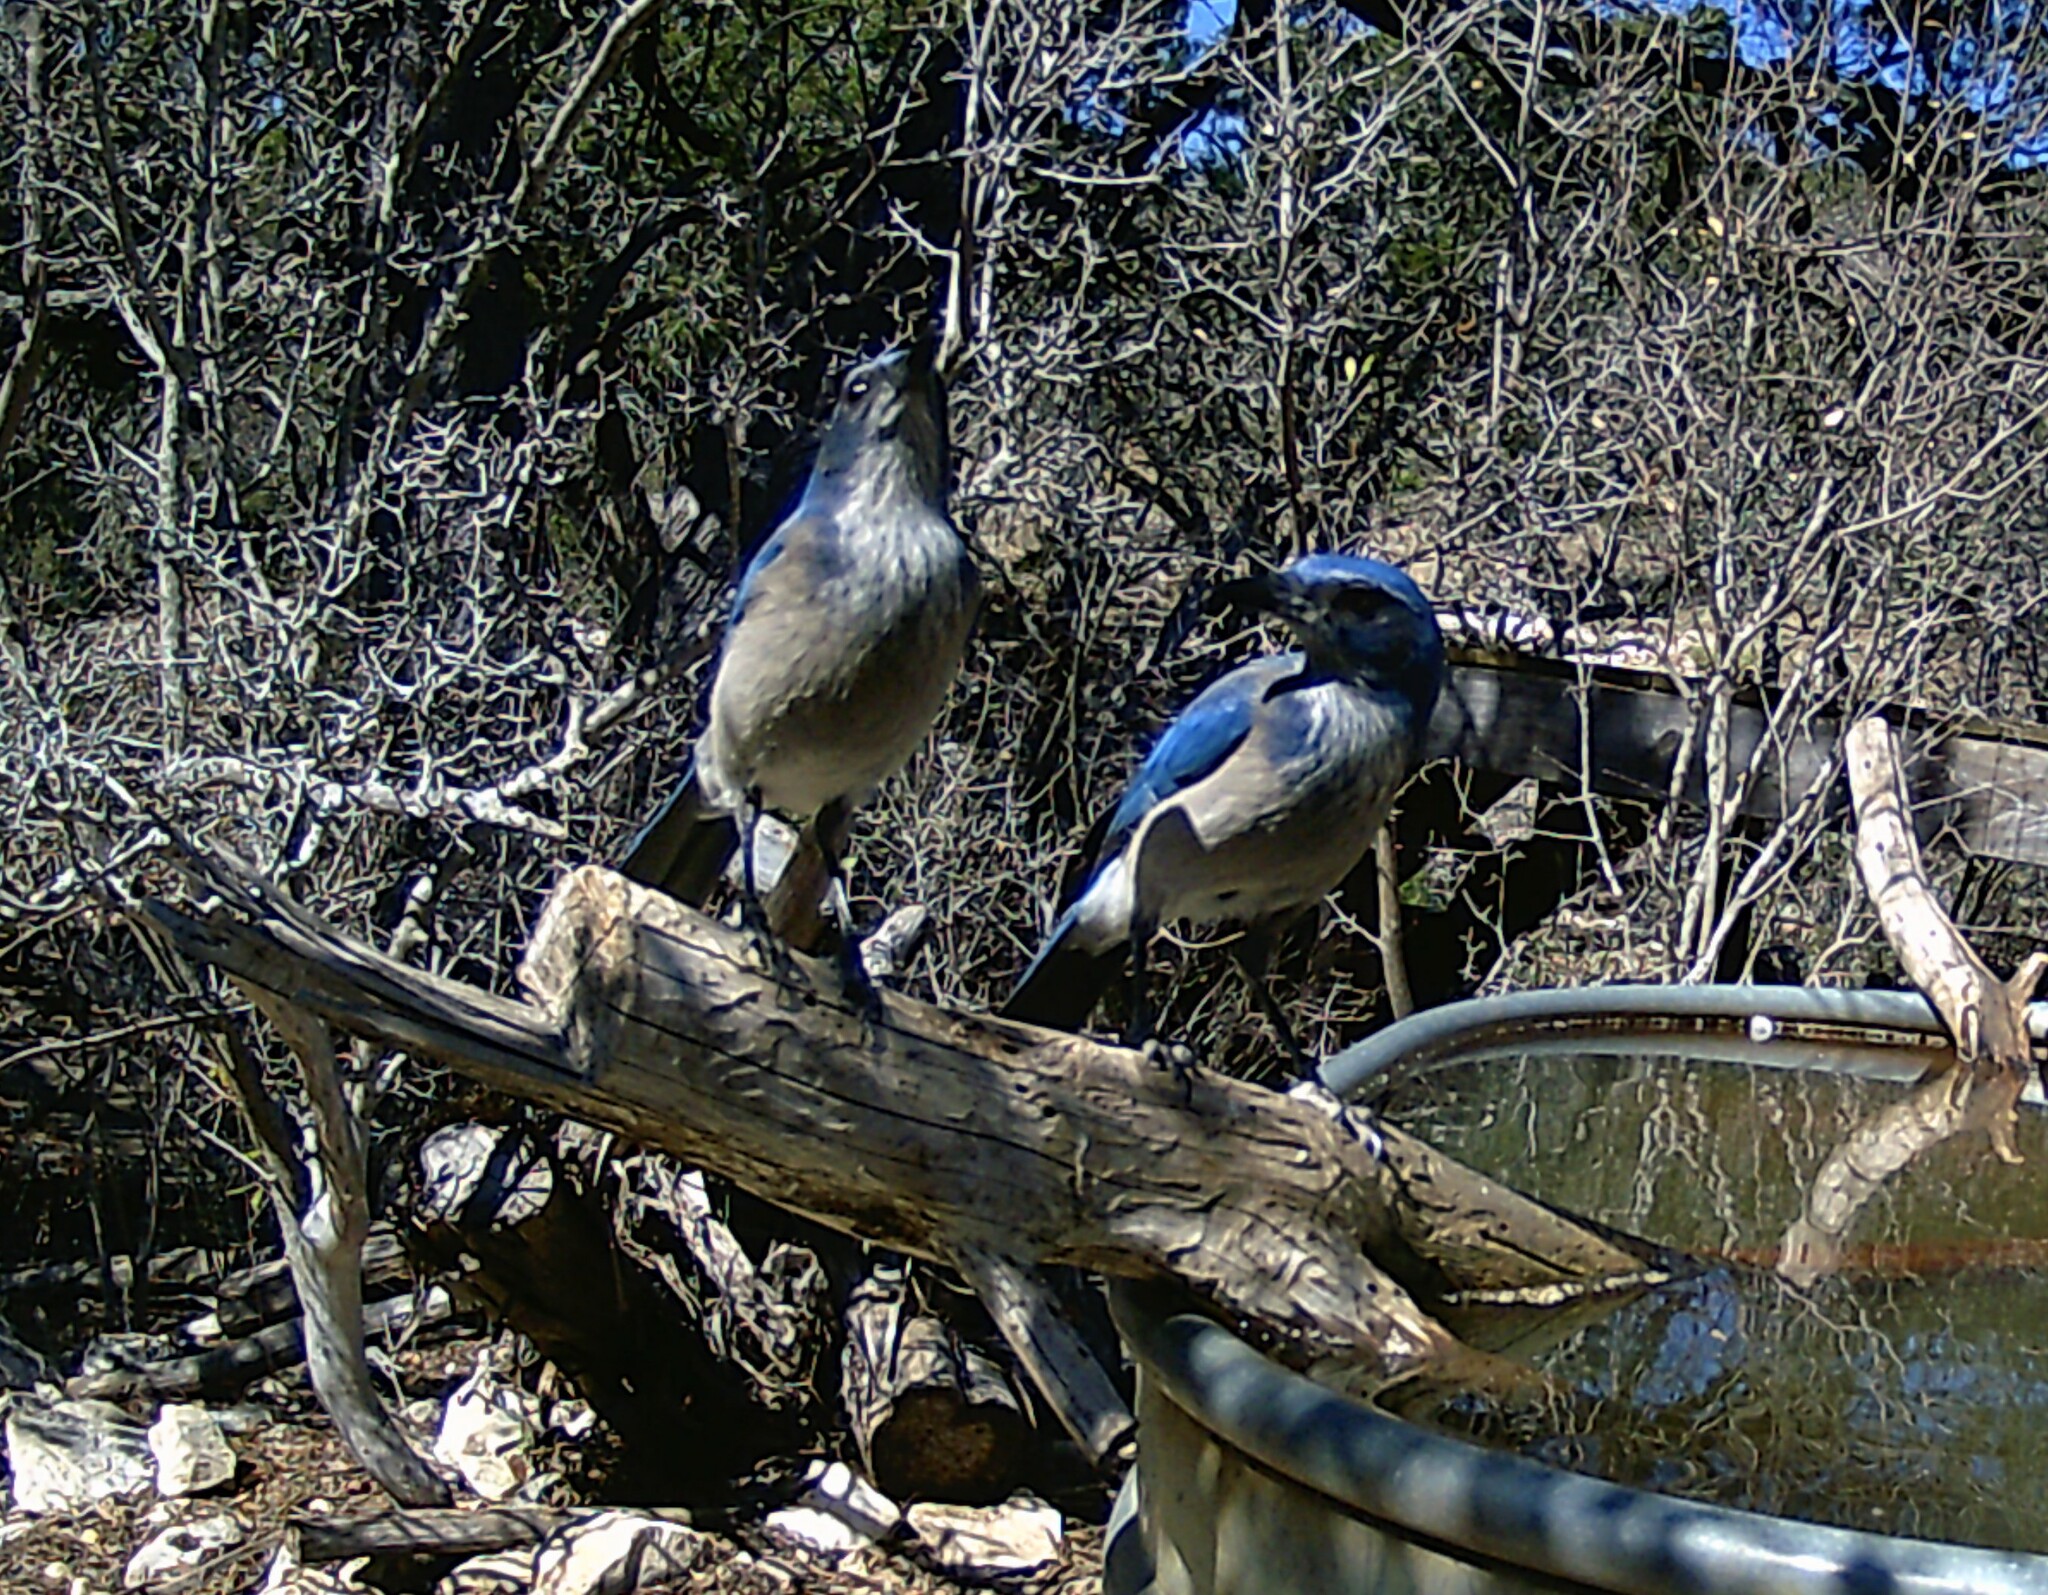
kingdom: Animalia
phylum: Chordata
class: Aves
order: Passeriformes
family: Corvidae
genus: Aphelocoma
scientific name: Aphelocoma woodhouseii
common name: Woodhouse's scrub-jay
